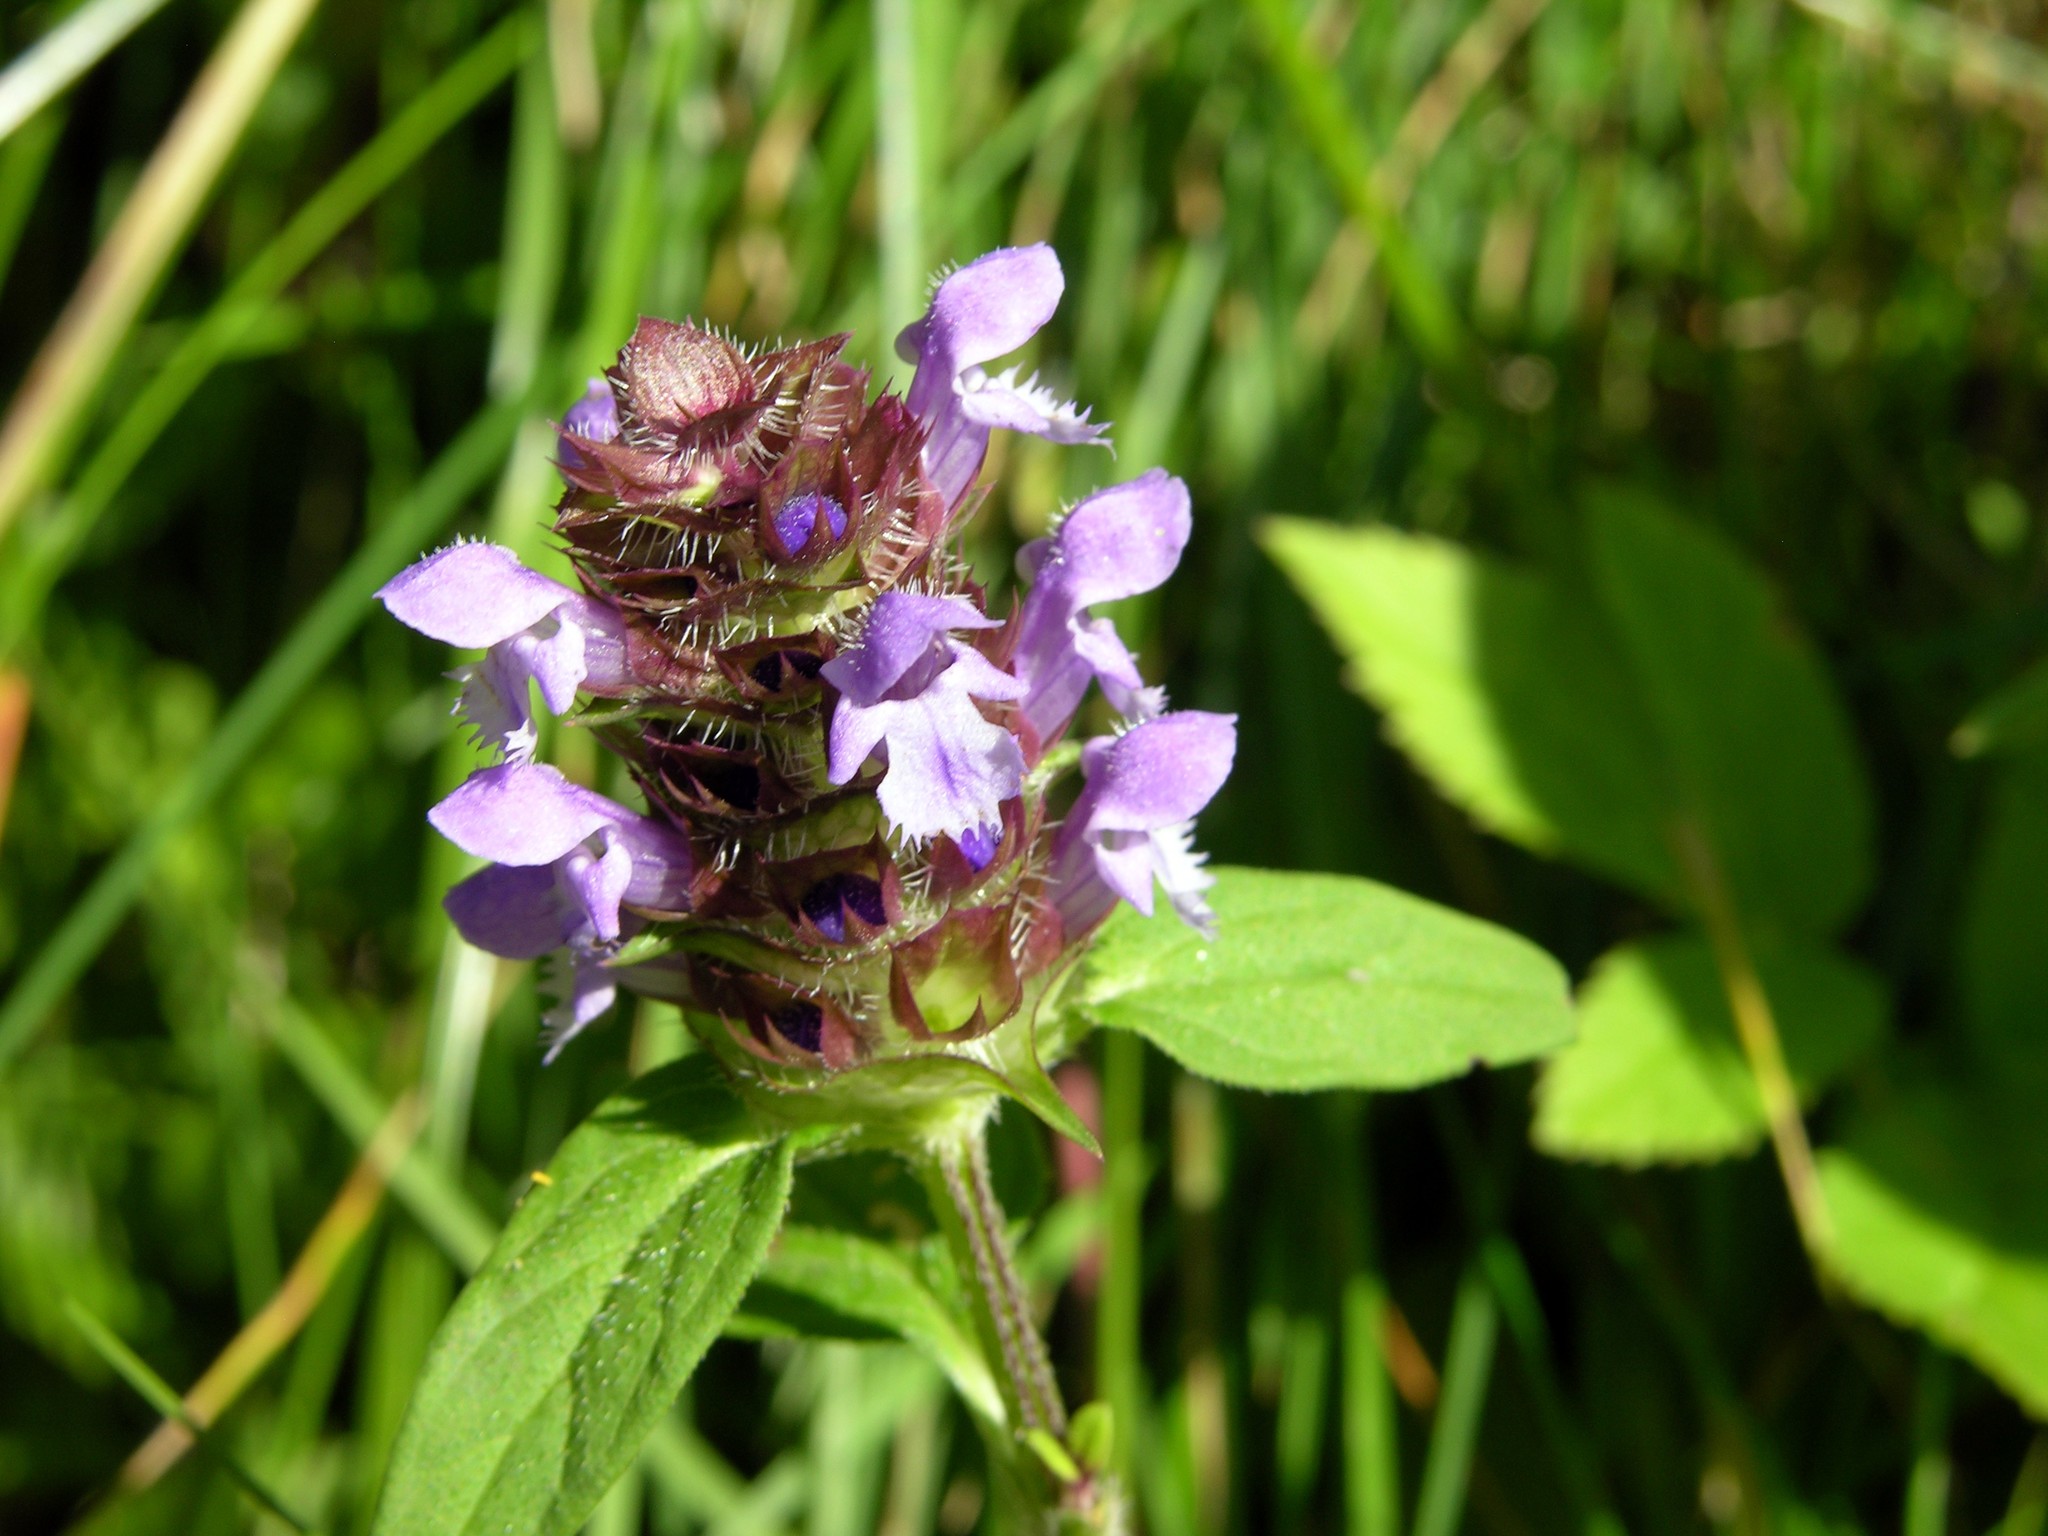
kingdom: Plantae
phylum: Tracheophyta
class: Magnoliopsida
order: Lamiales
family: Lamiaceae
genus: Prunella
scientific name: Prunella vulgaris
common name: Heal-all
